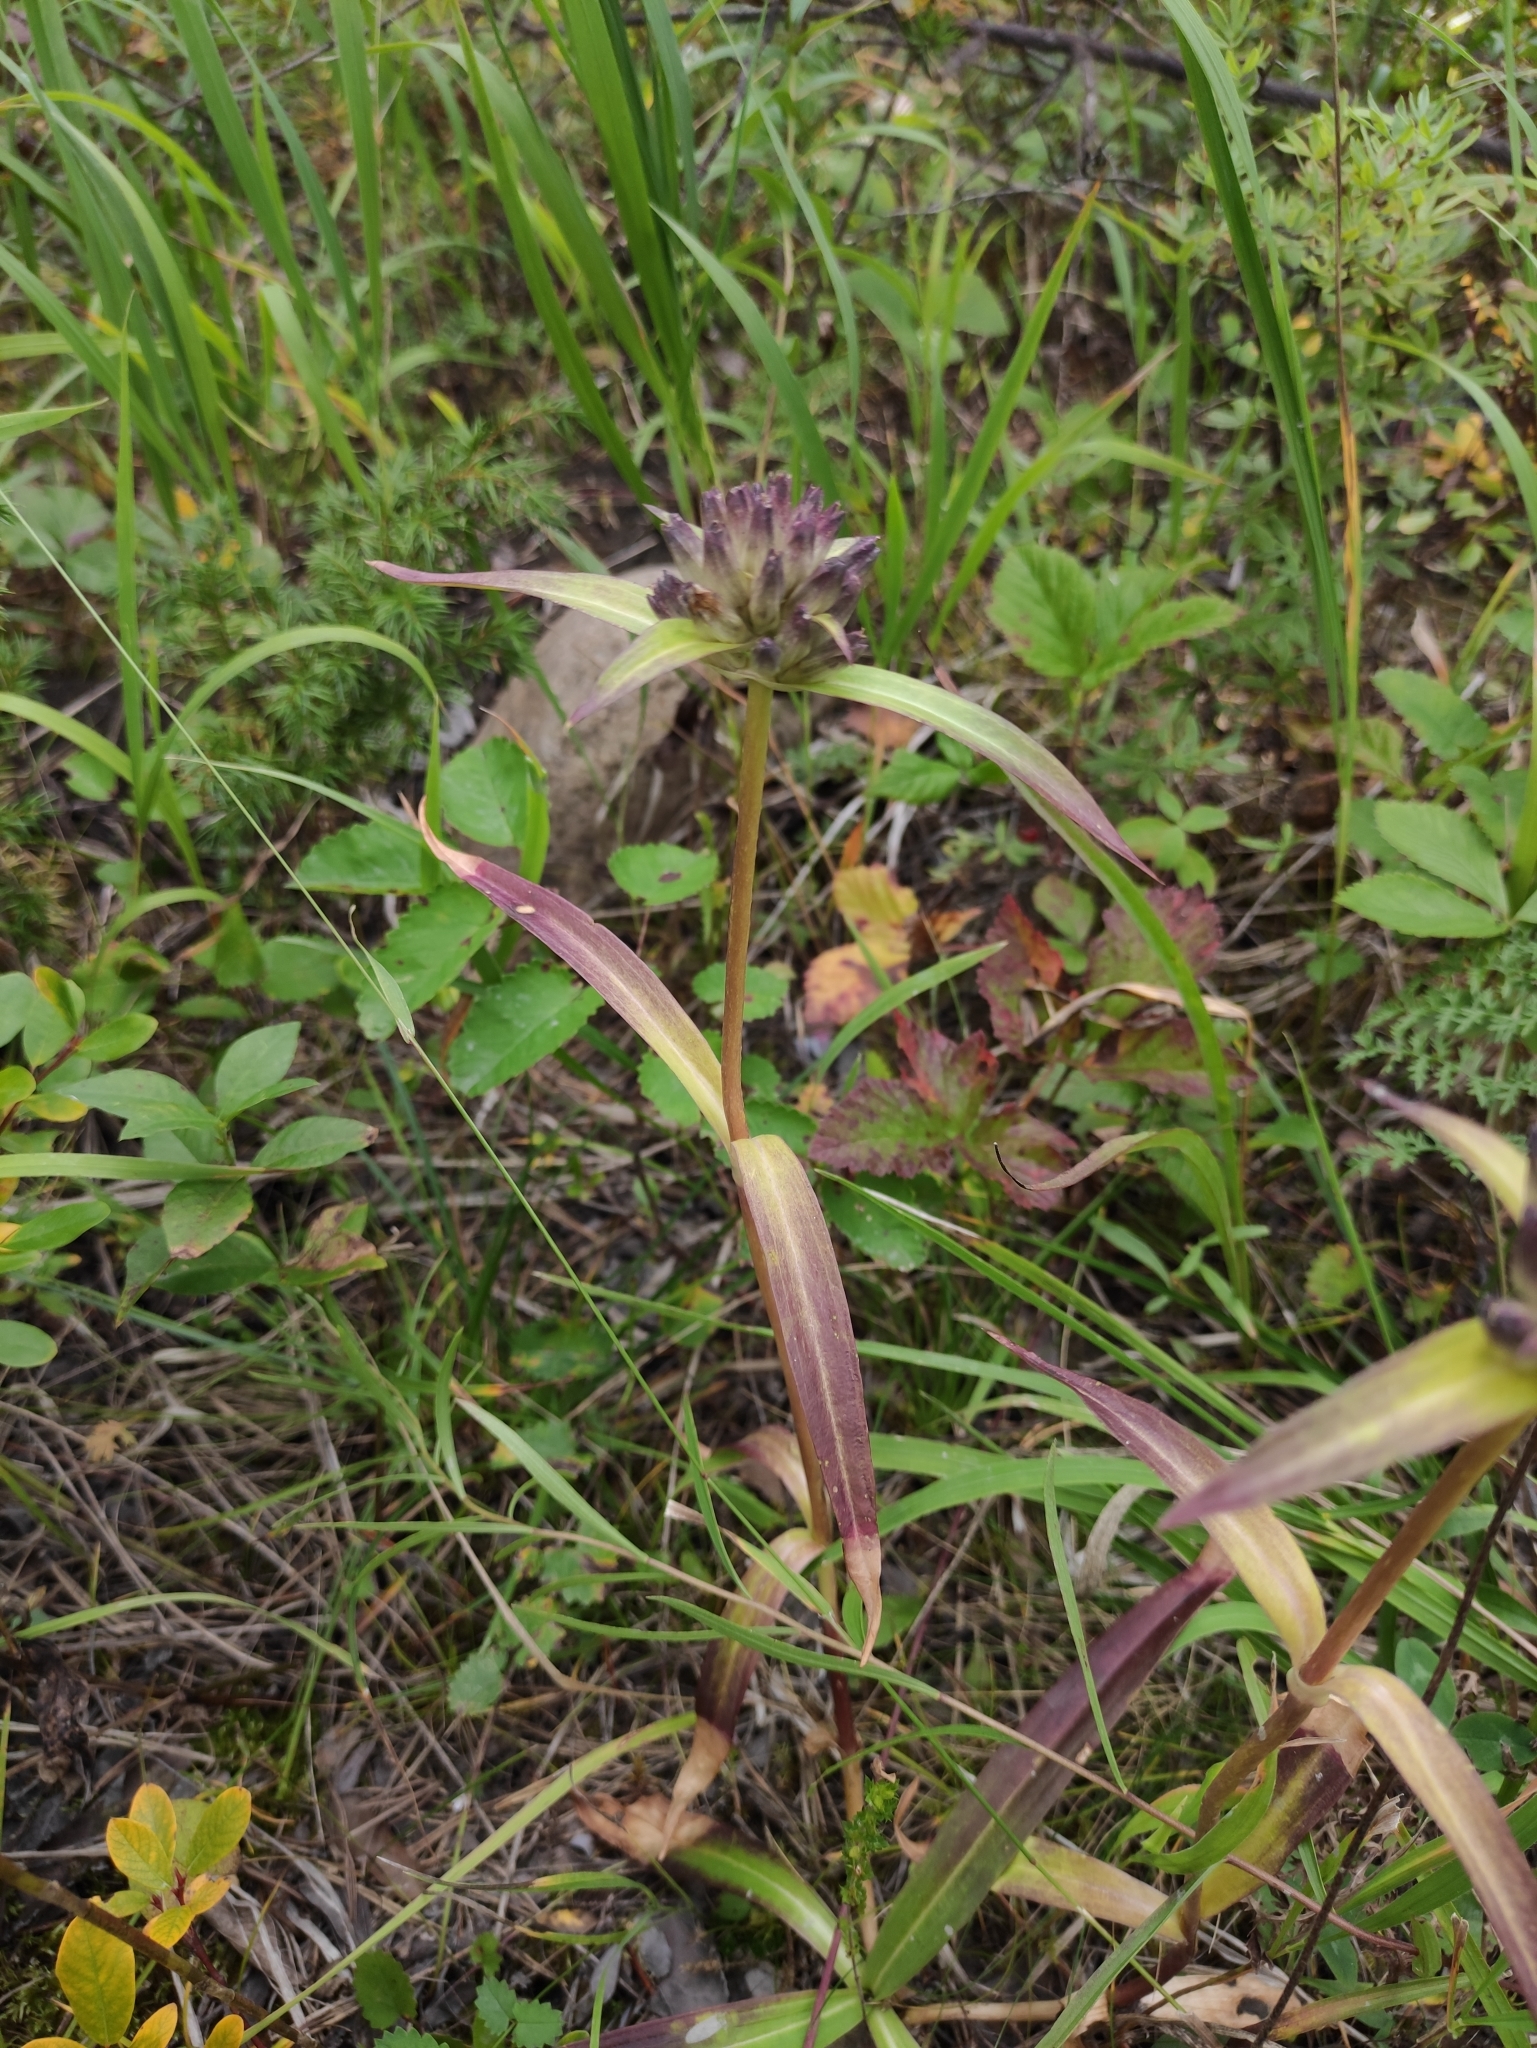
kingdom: Plantae
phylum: Tracheophyta
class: Magnoliopsida
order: Gentianales
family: Gentianaceae
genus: Gentiana
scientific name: Gentiana macrophylla
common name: Large-leaf gentian
